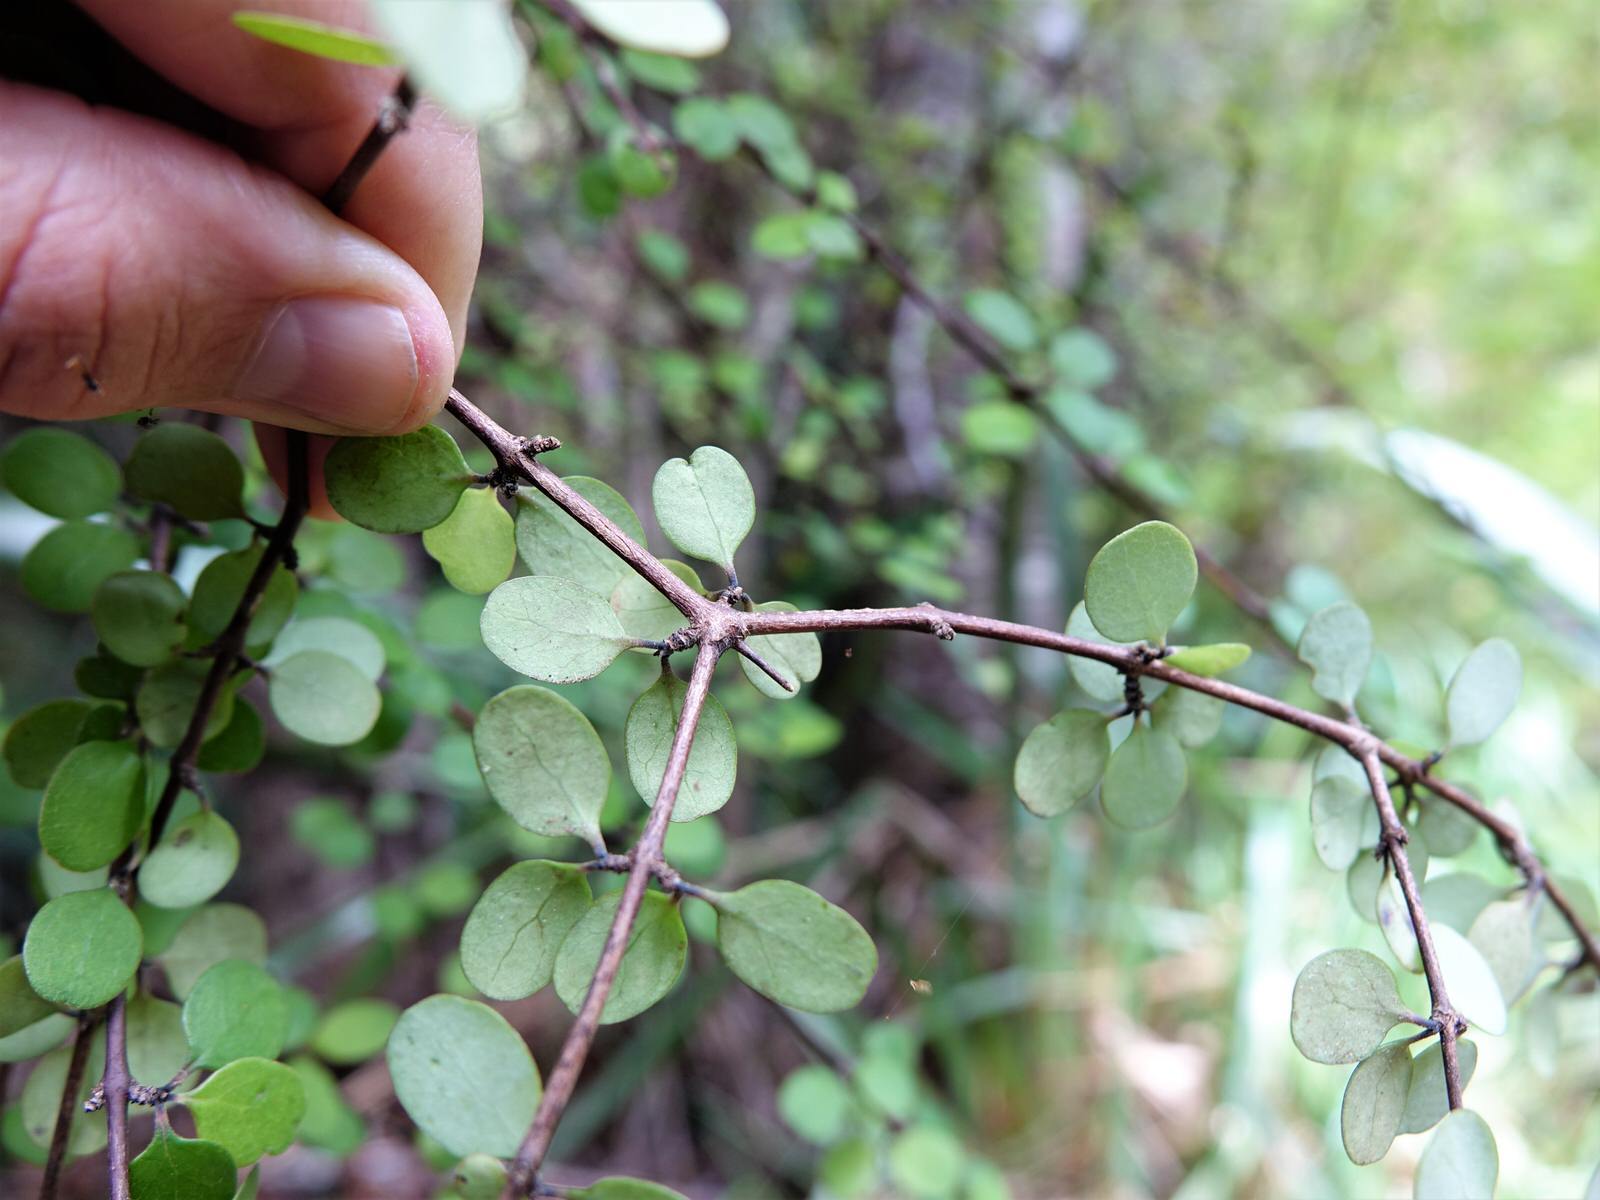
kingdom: Plantae
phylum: Tracheophyta
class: Magnoliopsida
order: Gentianales
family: Rubiaceae
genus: Coprosma
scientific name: Coprosma crassifolia
